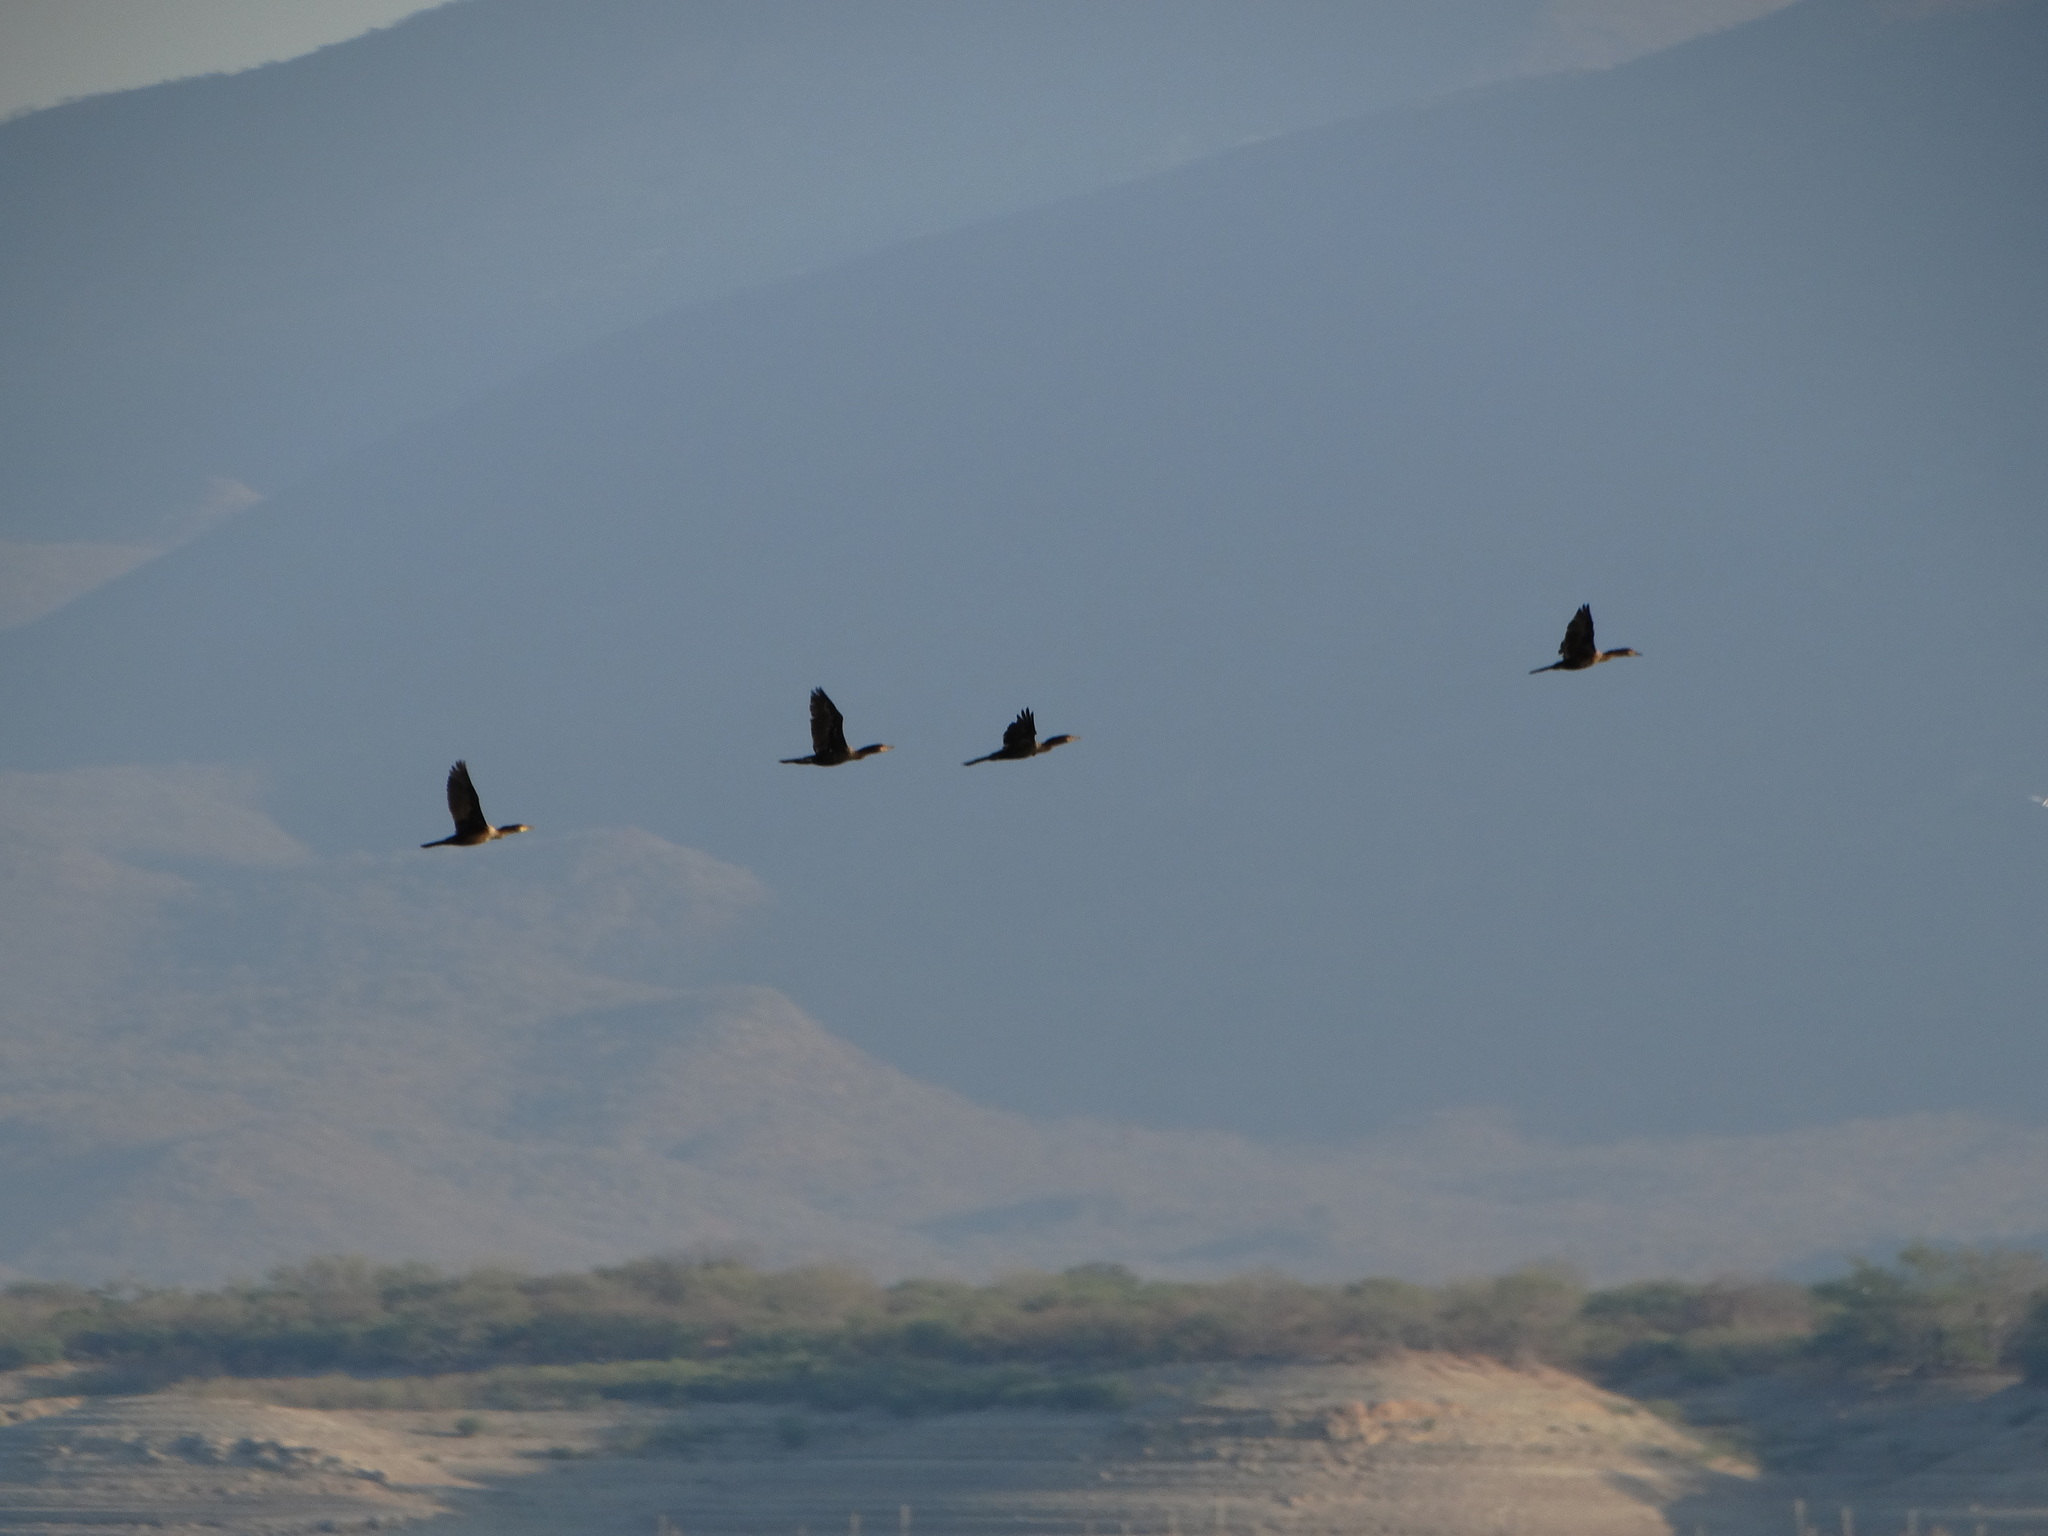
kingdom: Animalia
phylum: Chordata
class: Aves
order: Suliformes
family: Phalacrocoracidae
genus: Phalacrocorax
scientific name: Phalacrocorax brasilianus
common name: Neotropic cormorant
